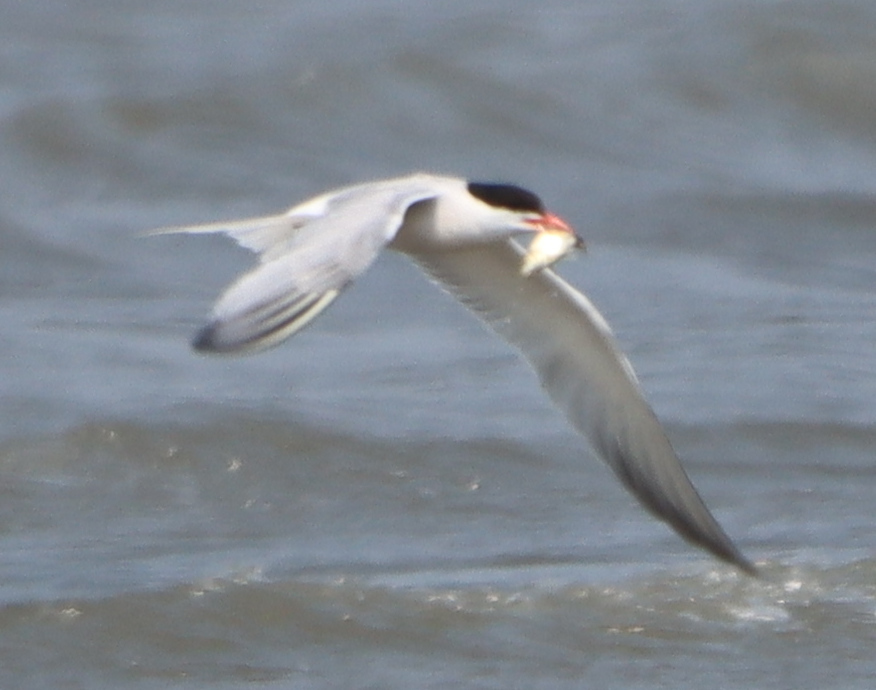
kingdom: Animalia
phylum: Chordata
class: Aves
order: Charadriiformes
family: Laridae
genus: Sterna
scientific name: Sterna hirundo
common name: Common tern
